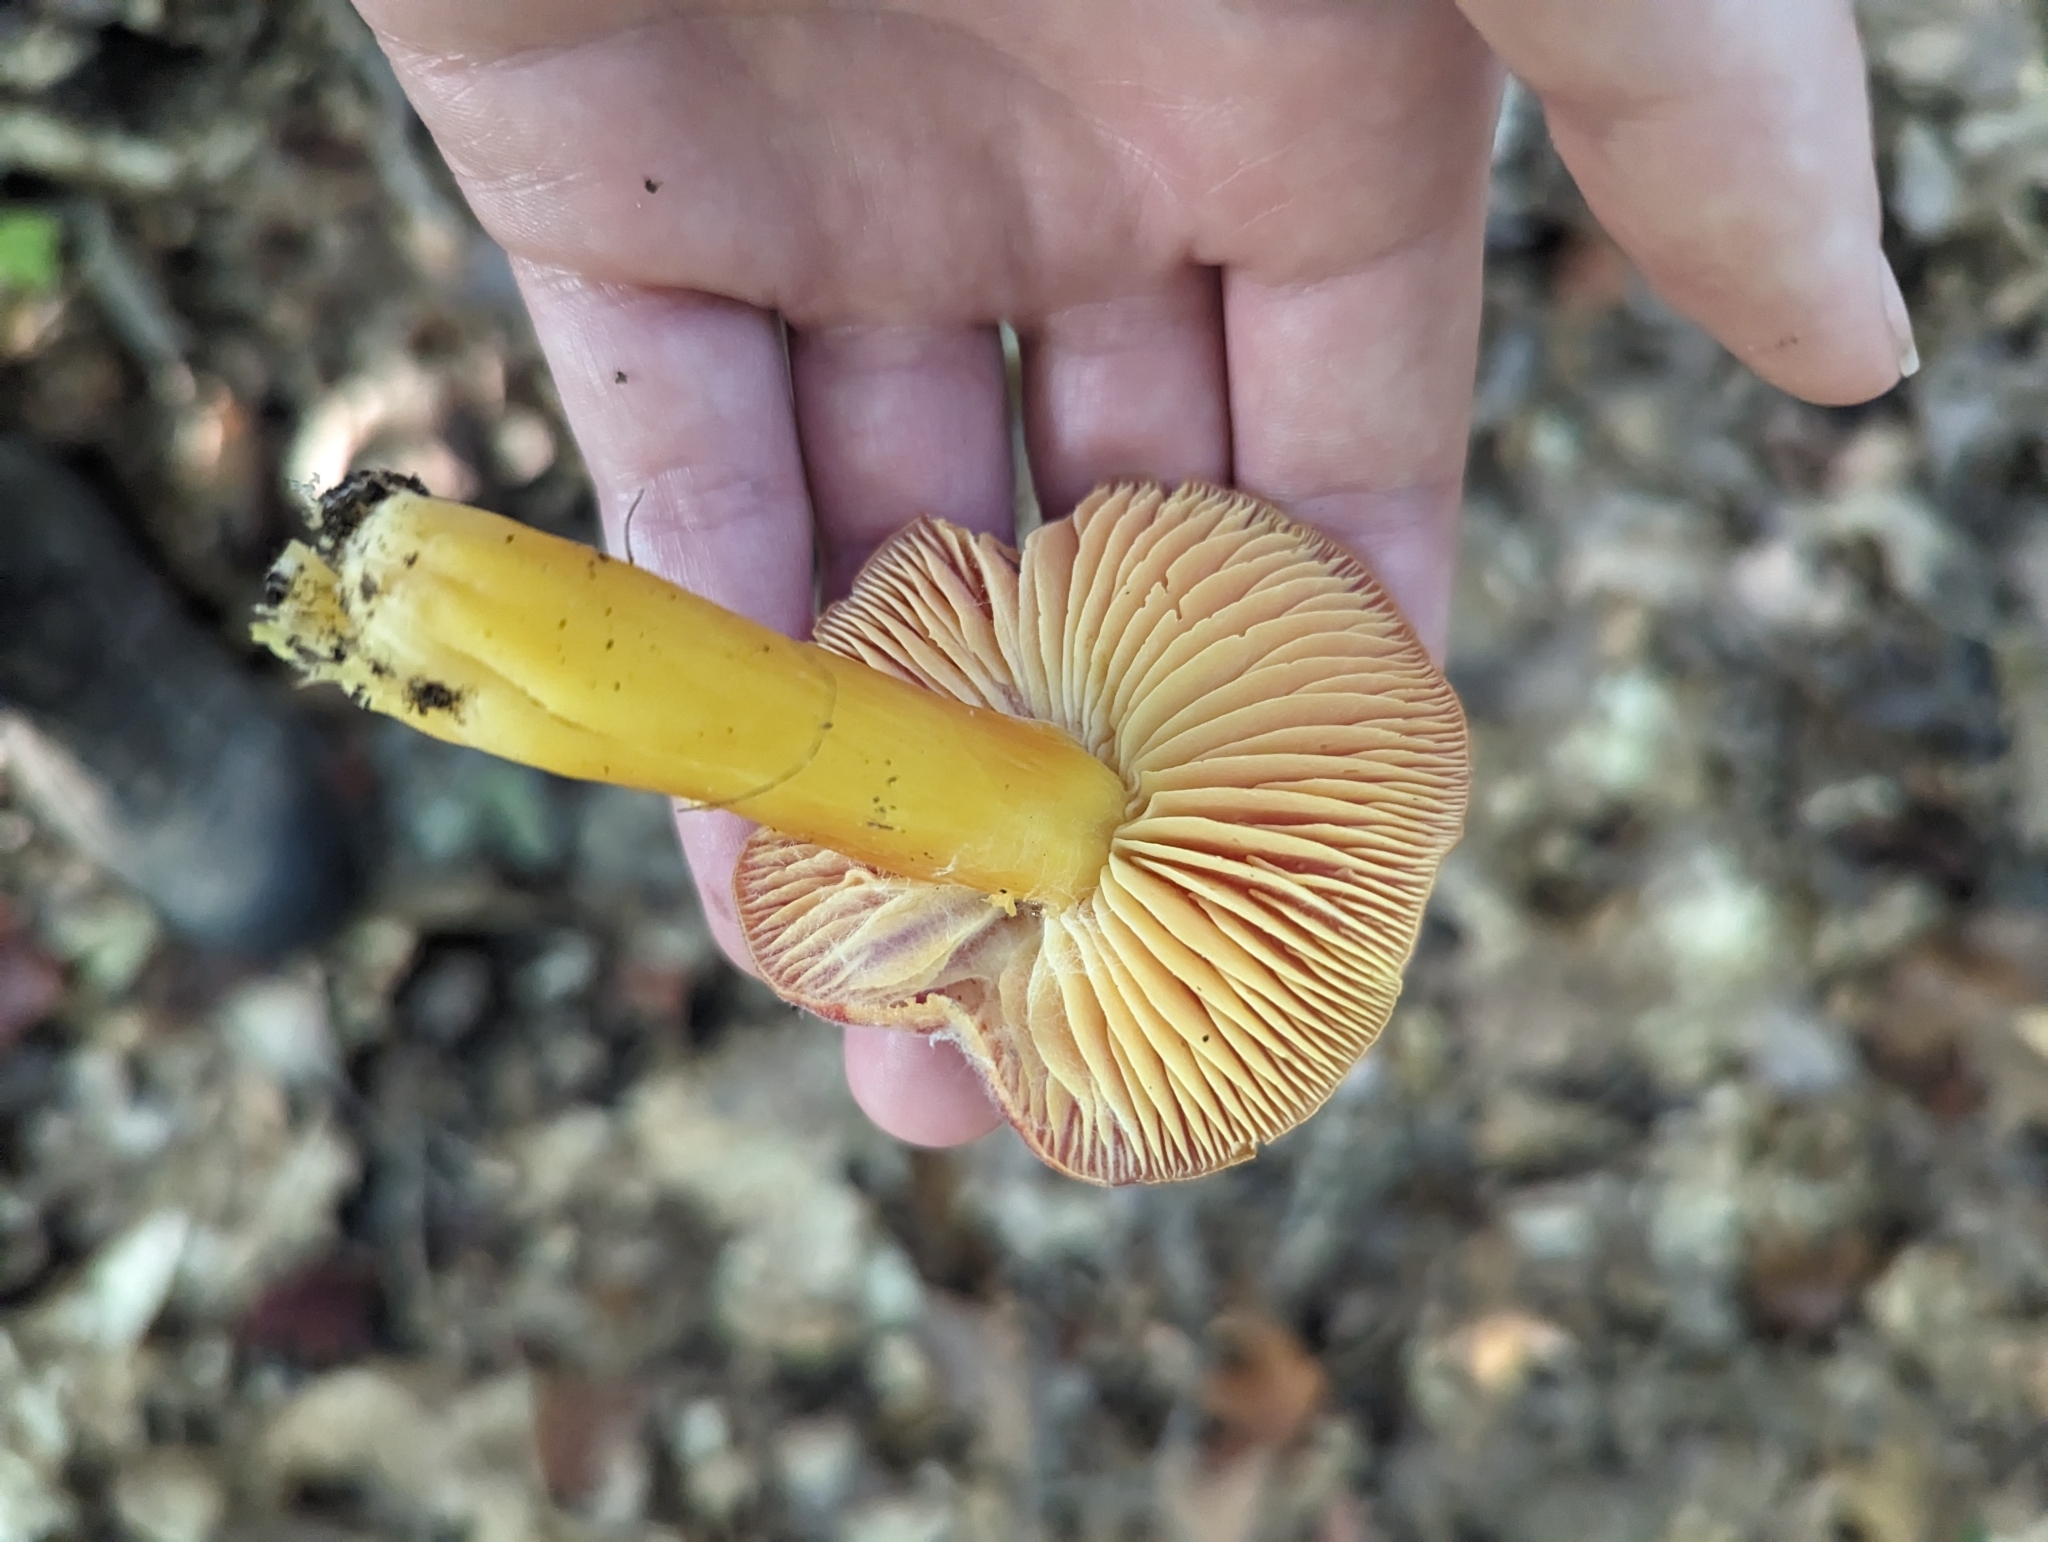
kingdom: Fungi
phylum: Basidiomycota
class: Agaricomycetes
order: Agaricales
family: Hygrophoraceae
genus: Hygrocybe
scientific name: Hygrocybe punicea
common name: Crimson waxcap
